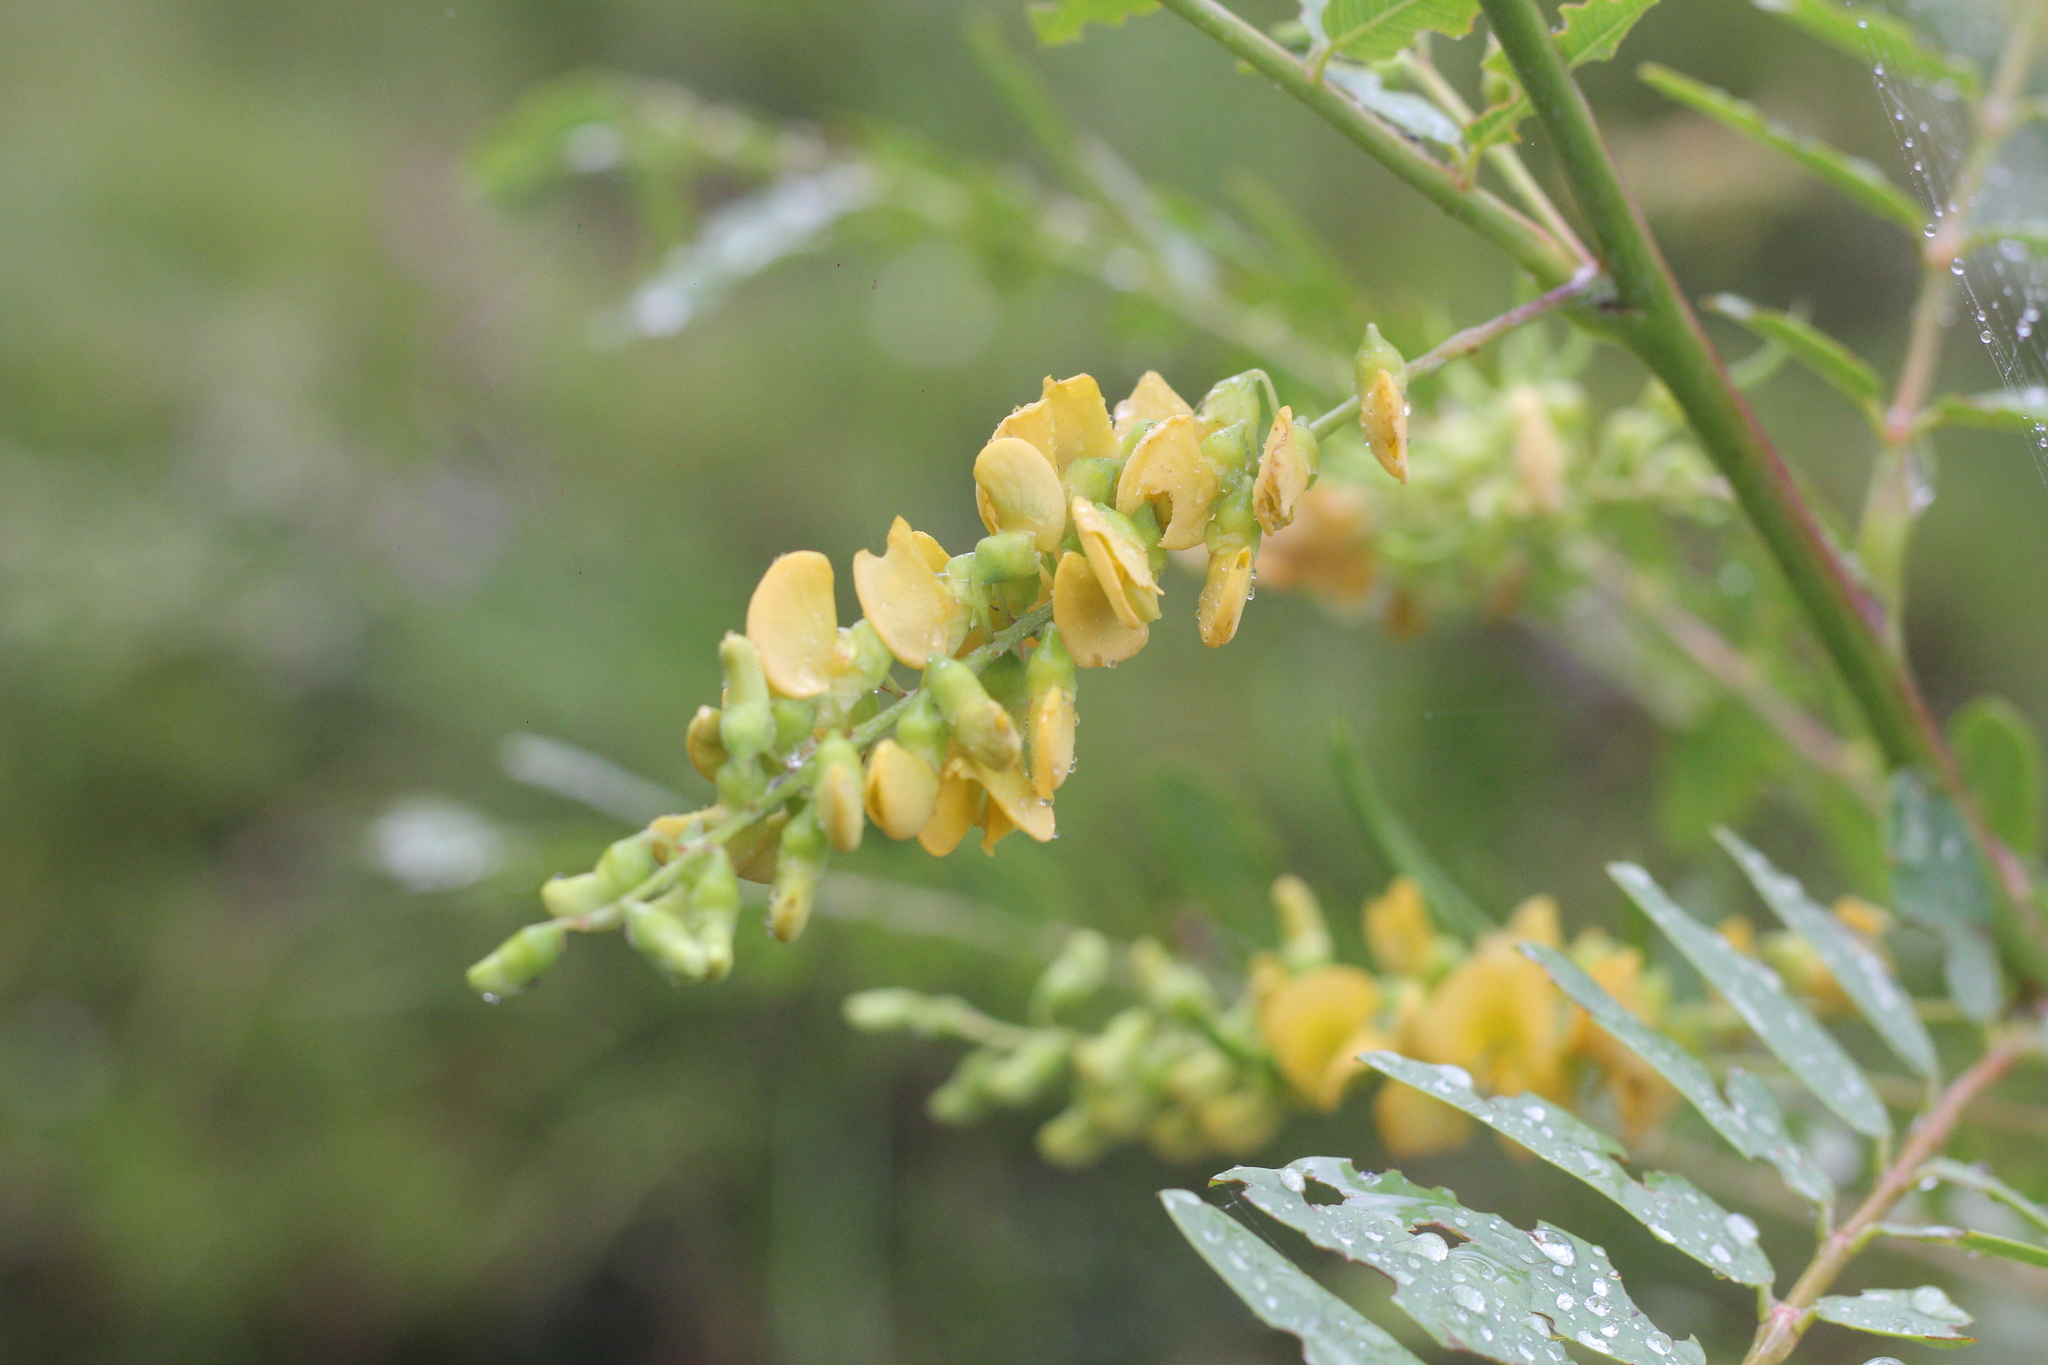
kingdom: Plantae
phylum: Tracheophyta
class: Magnoliopsida
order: Fabales
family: Fabaceae
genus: Sesbania
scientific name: Sesbania virgata
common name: Wand riverhemp
